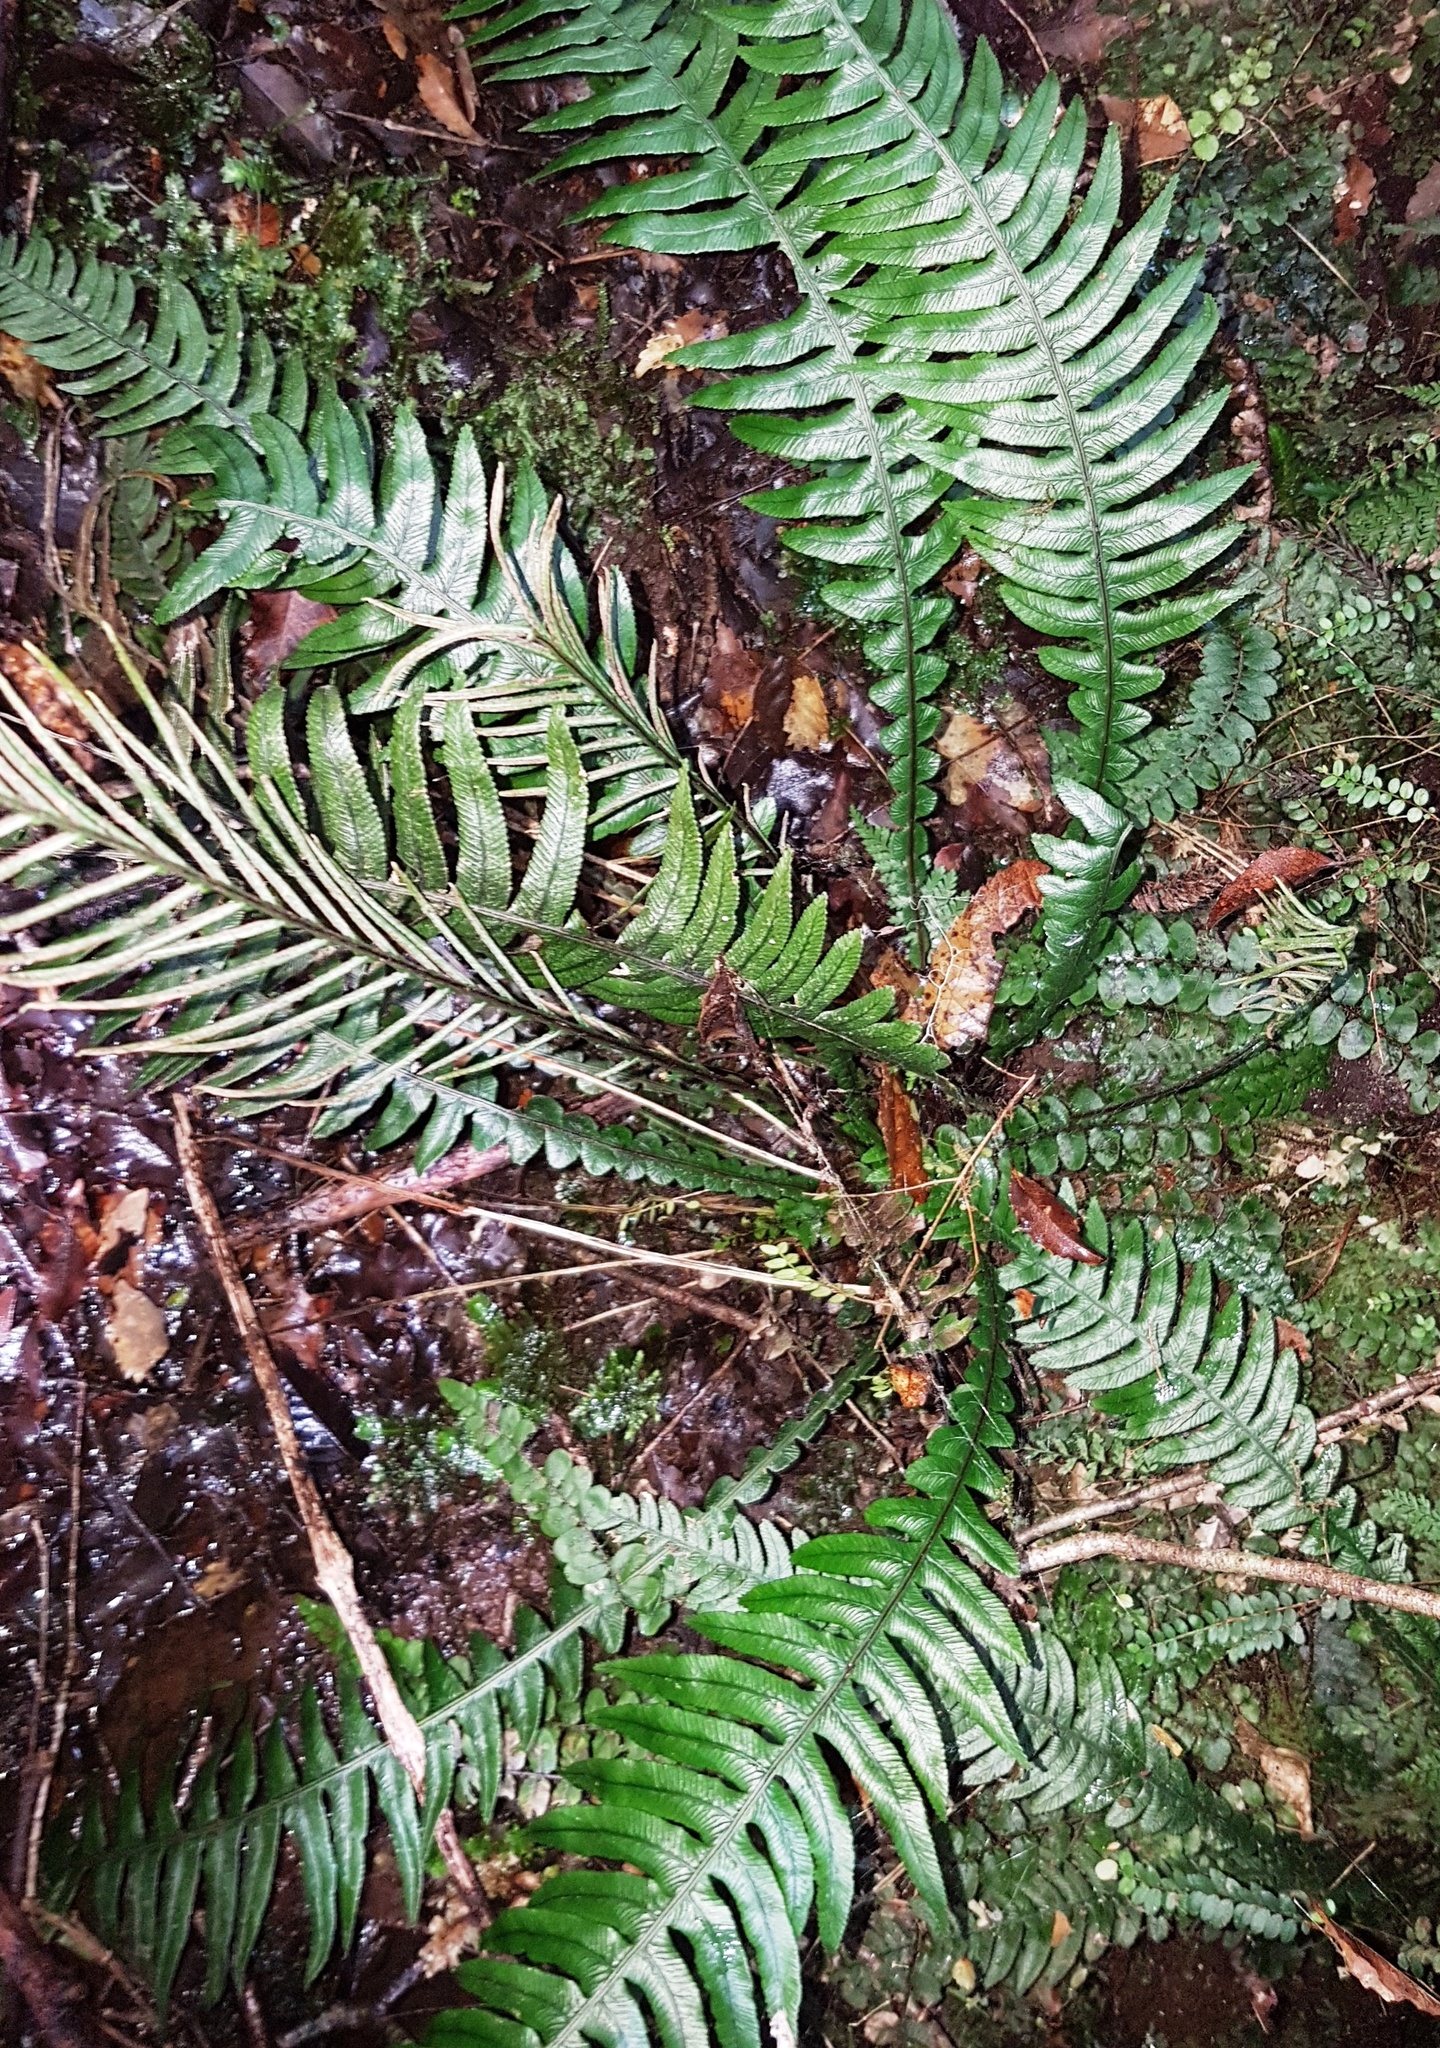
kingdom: Plantae
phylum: Tracheophyta
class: Polypodiopsida
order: Polypodiales
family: Blechnaceae
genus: Austroblechnum
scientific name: Austroblechnum lanceolatum
